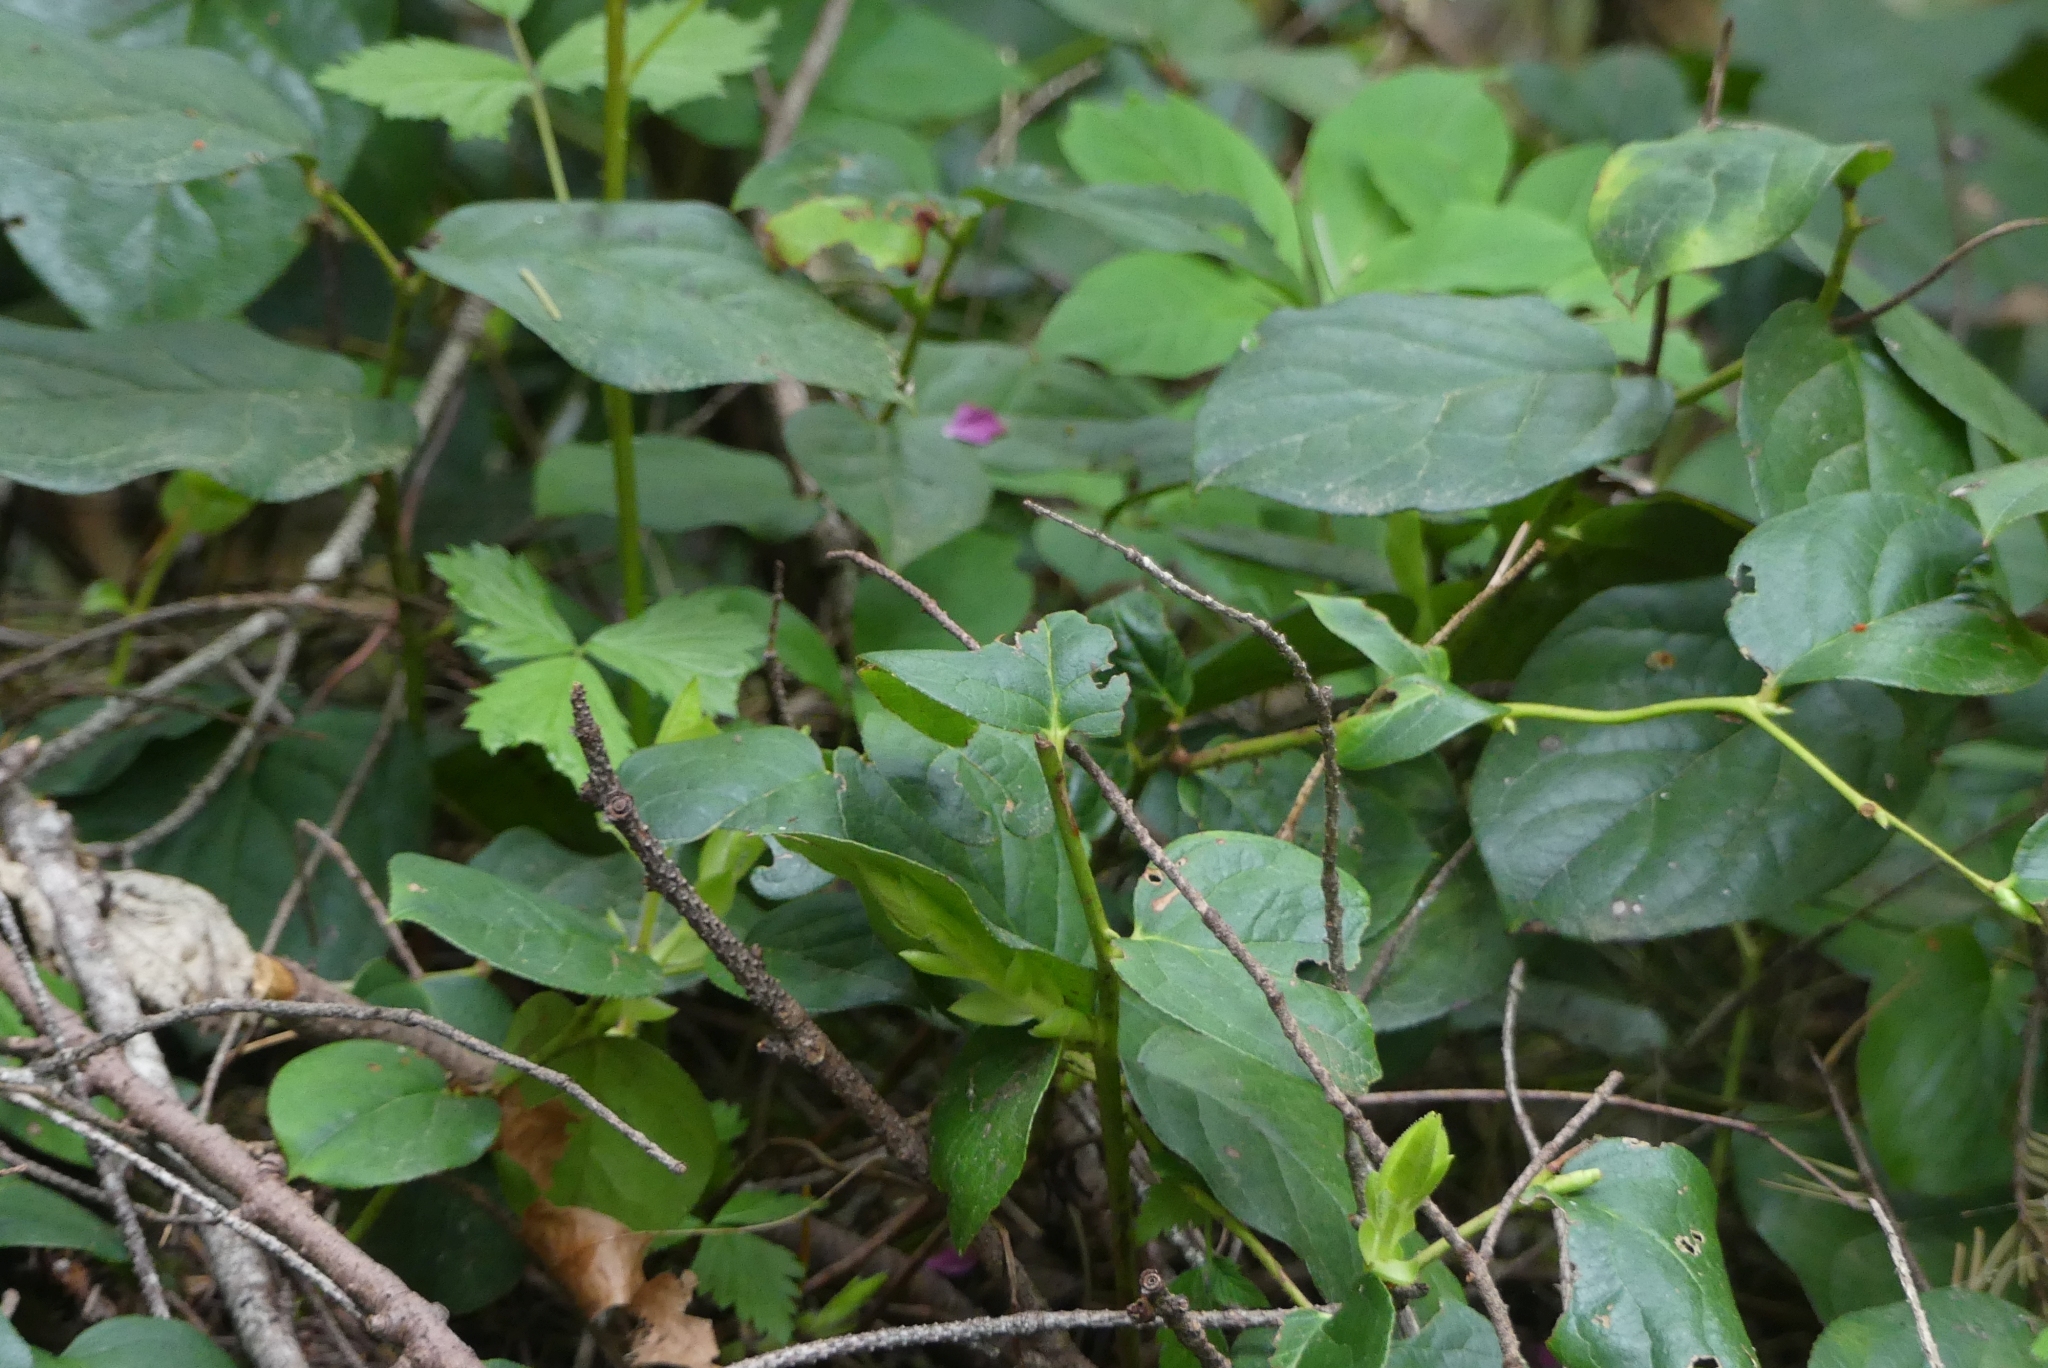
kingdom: Plantae
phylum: Tracheophyta
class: Magnoliopsida
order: Ericales
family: Ericaceae
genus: Gaultheria
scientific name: Gaultheria shallon
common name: Shallon
